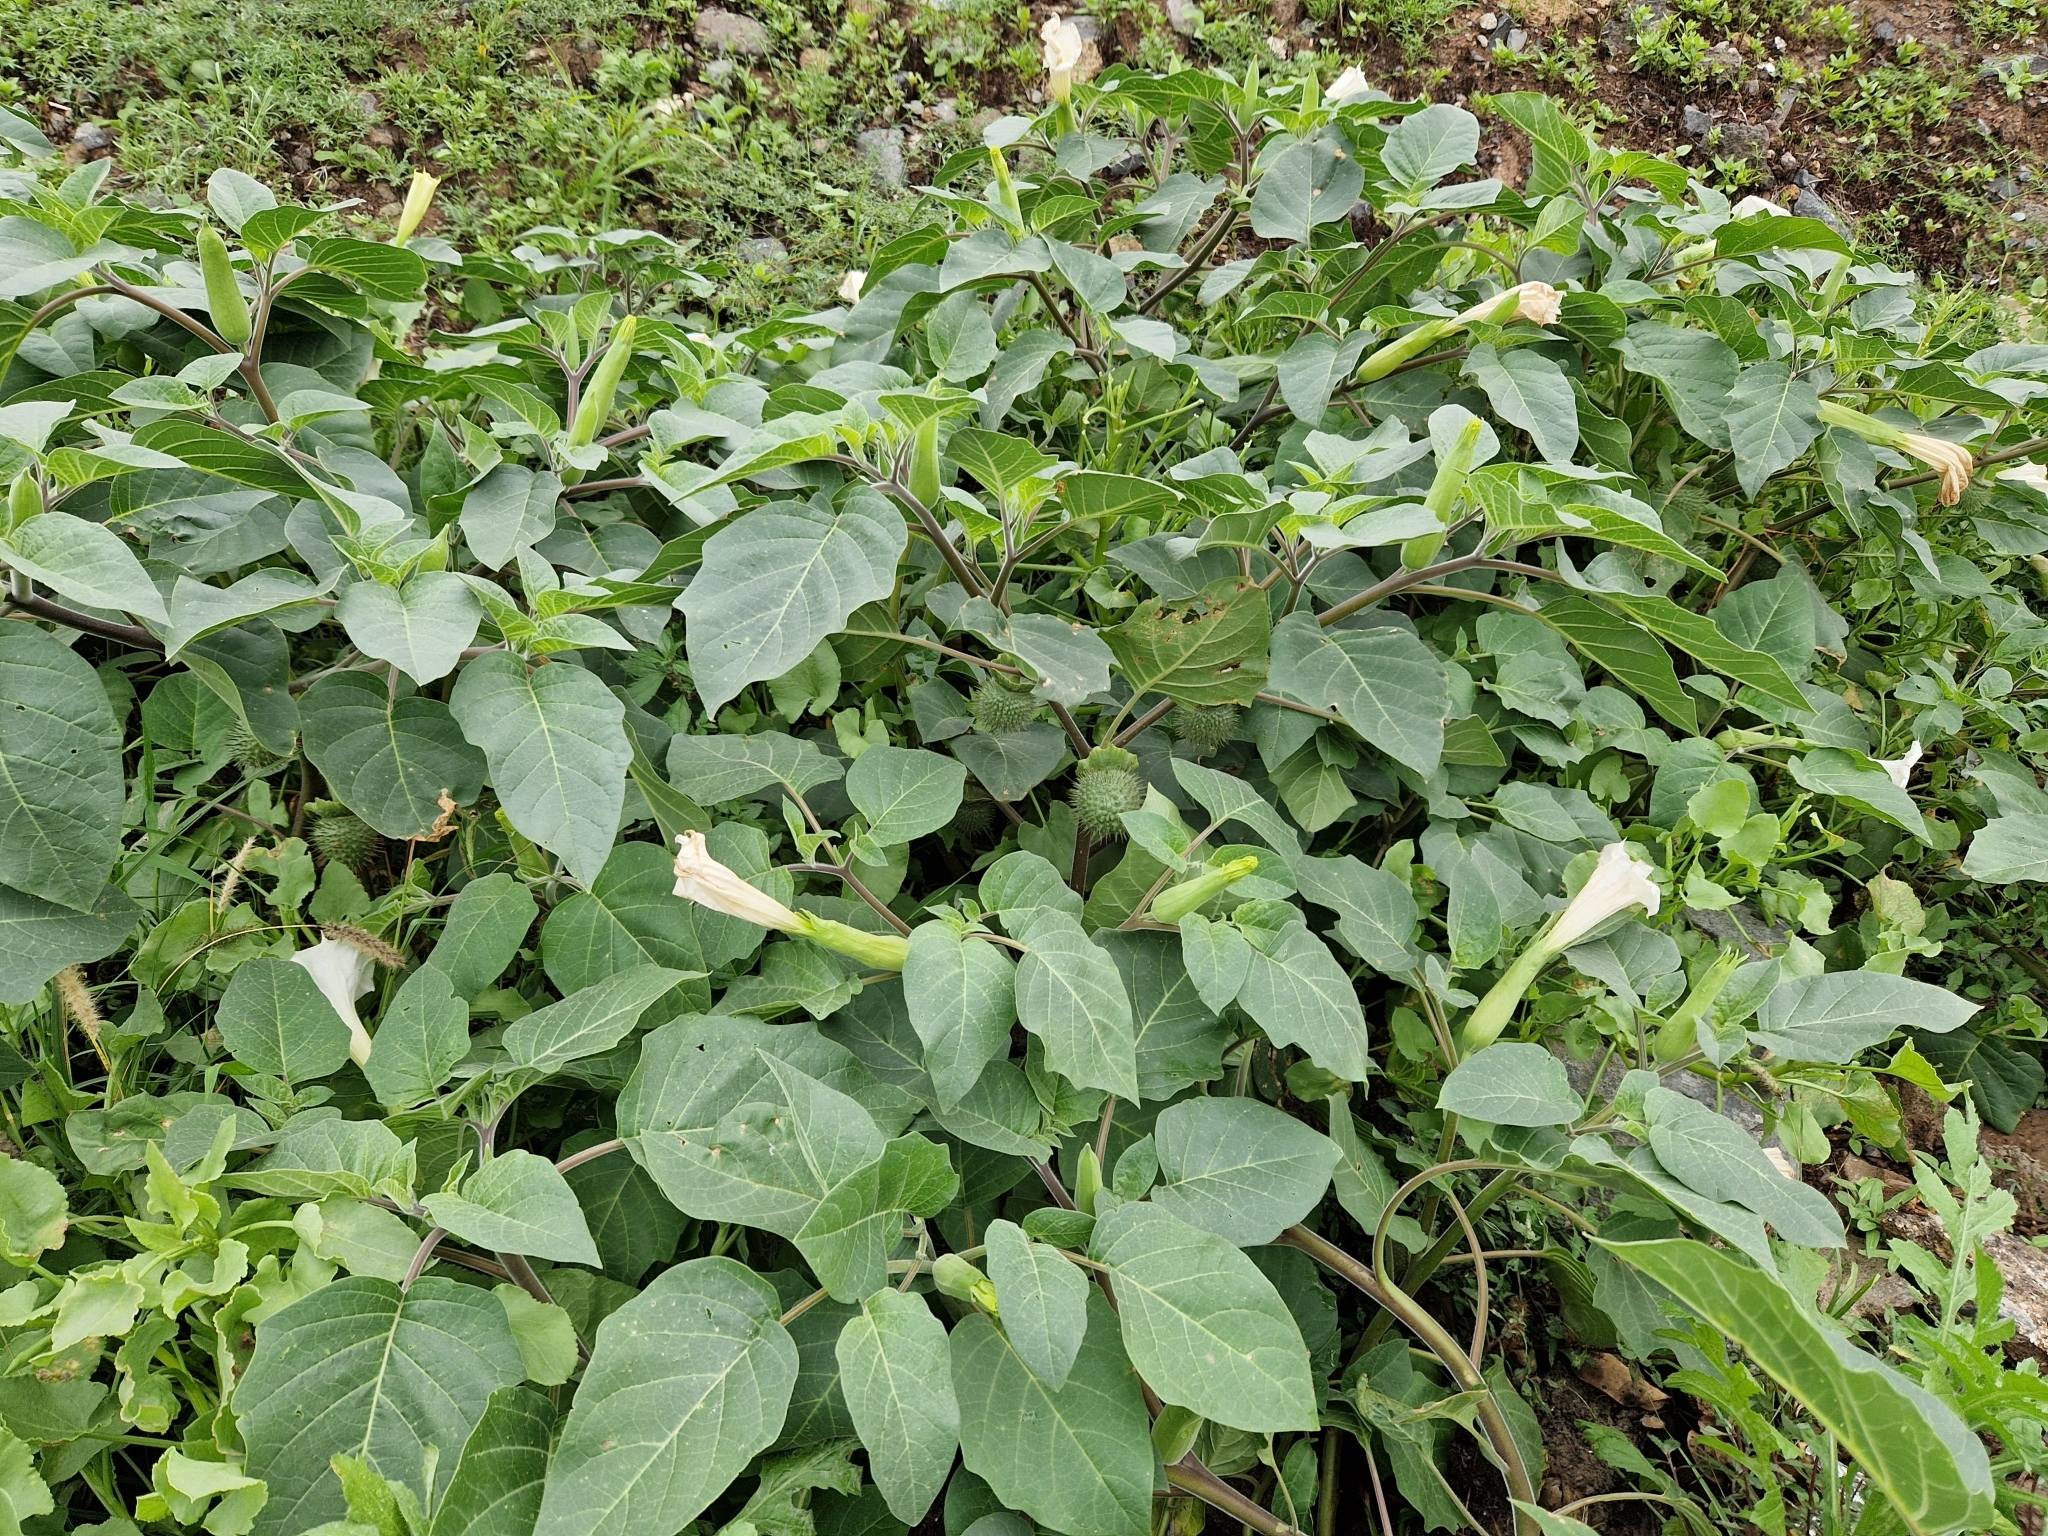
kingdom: Plantae
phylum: Tracheophyta
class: Magnoliopsida
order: Solanales
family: Solanaceae
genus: Datura
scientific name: Datura innoxia
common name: Downy thorn-apple
